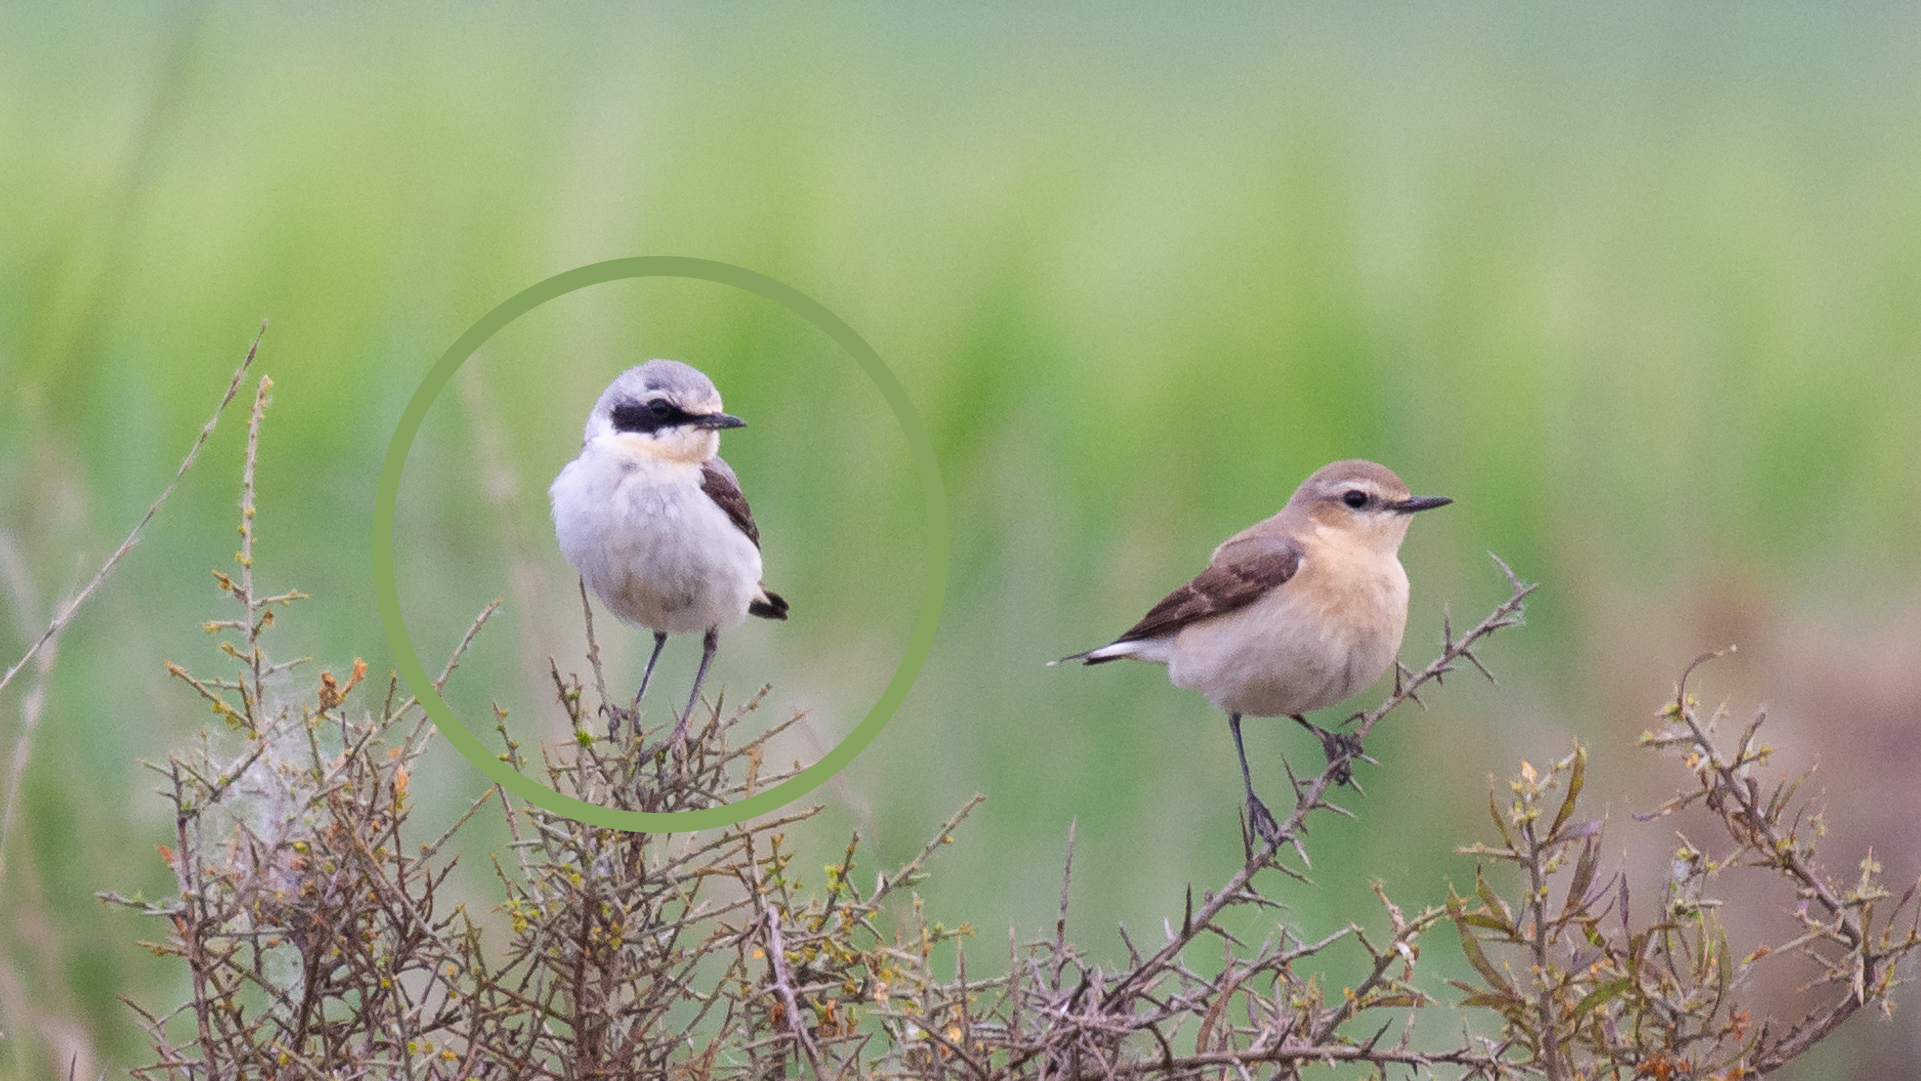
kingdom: Animalia
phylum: Chordata
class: Aves
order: Passeriformes
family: Muscicapidae
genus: Oenanthe
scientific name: Oenanthe oenanthe
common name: Northern wheatear
